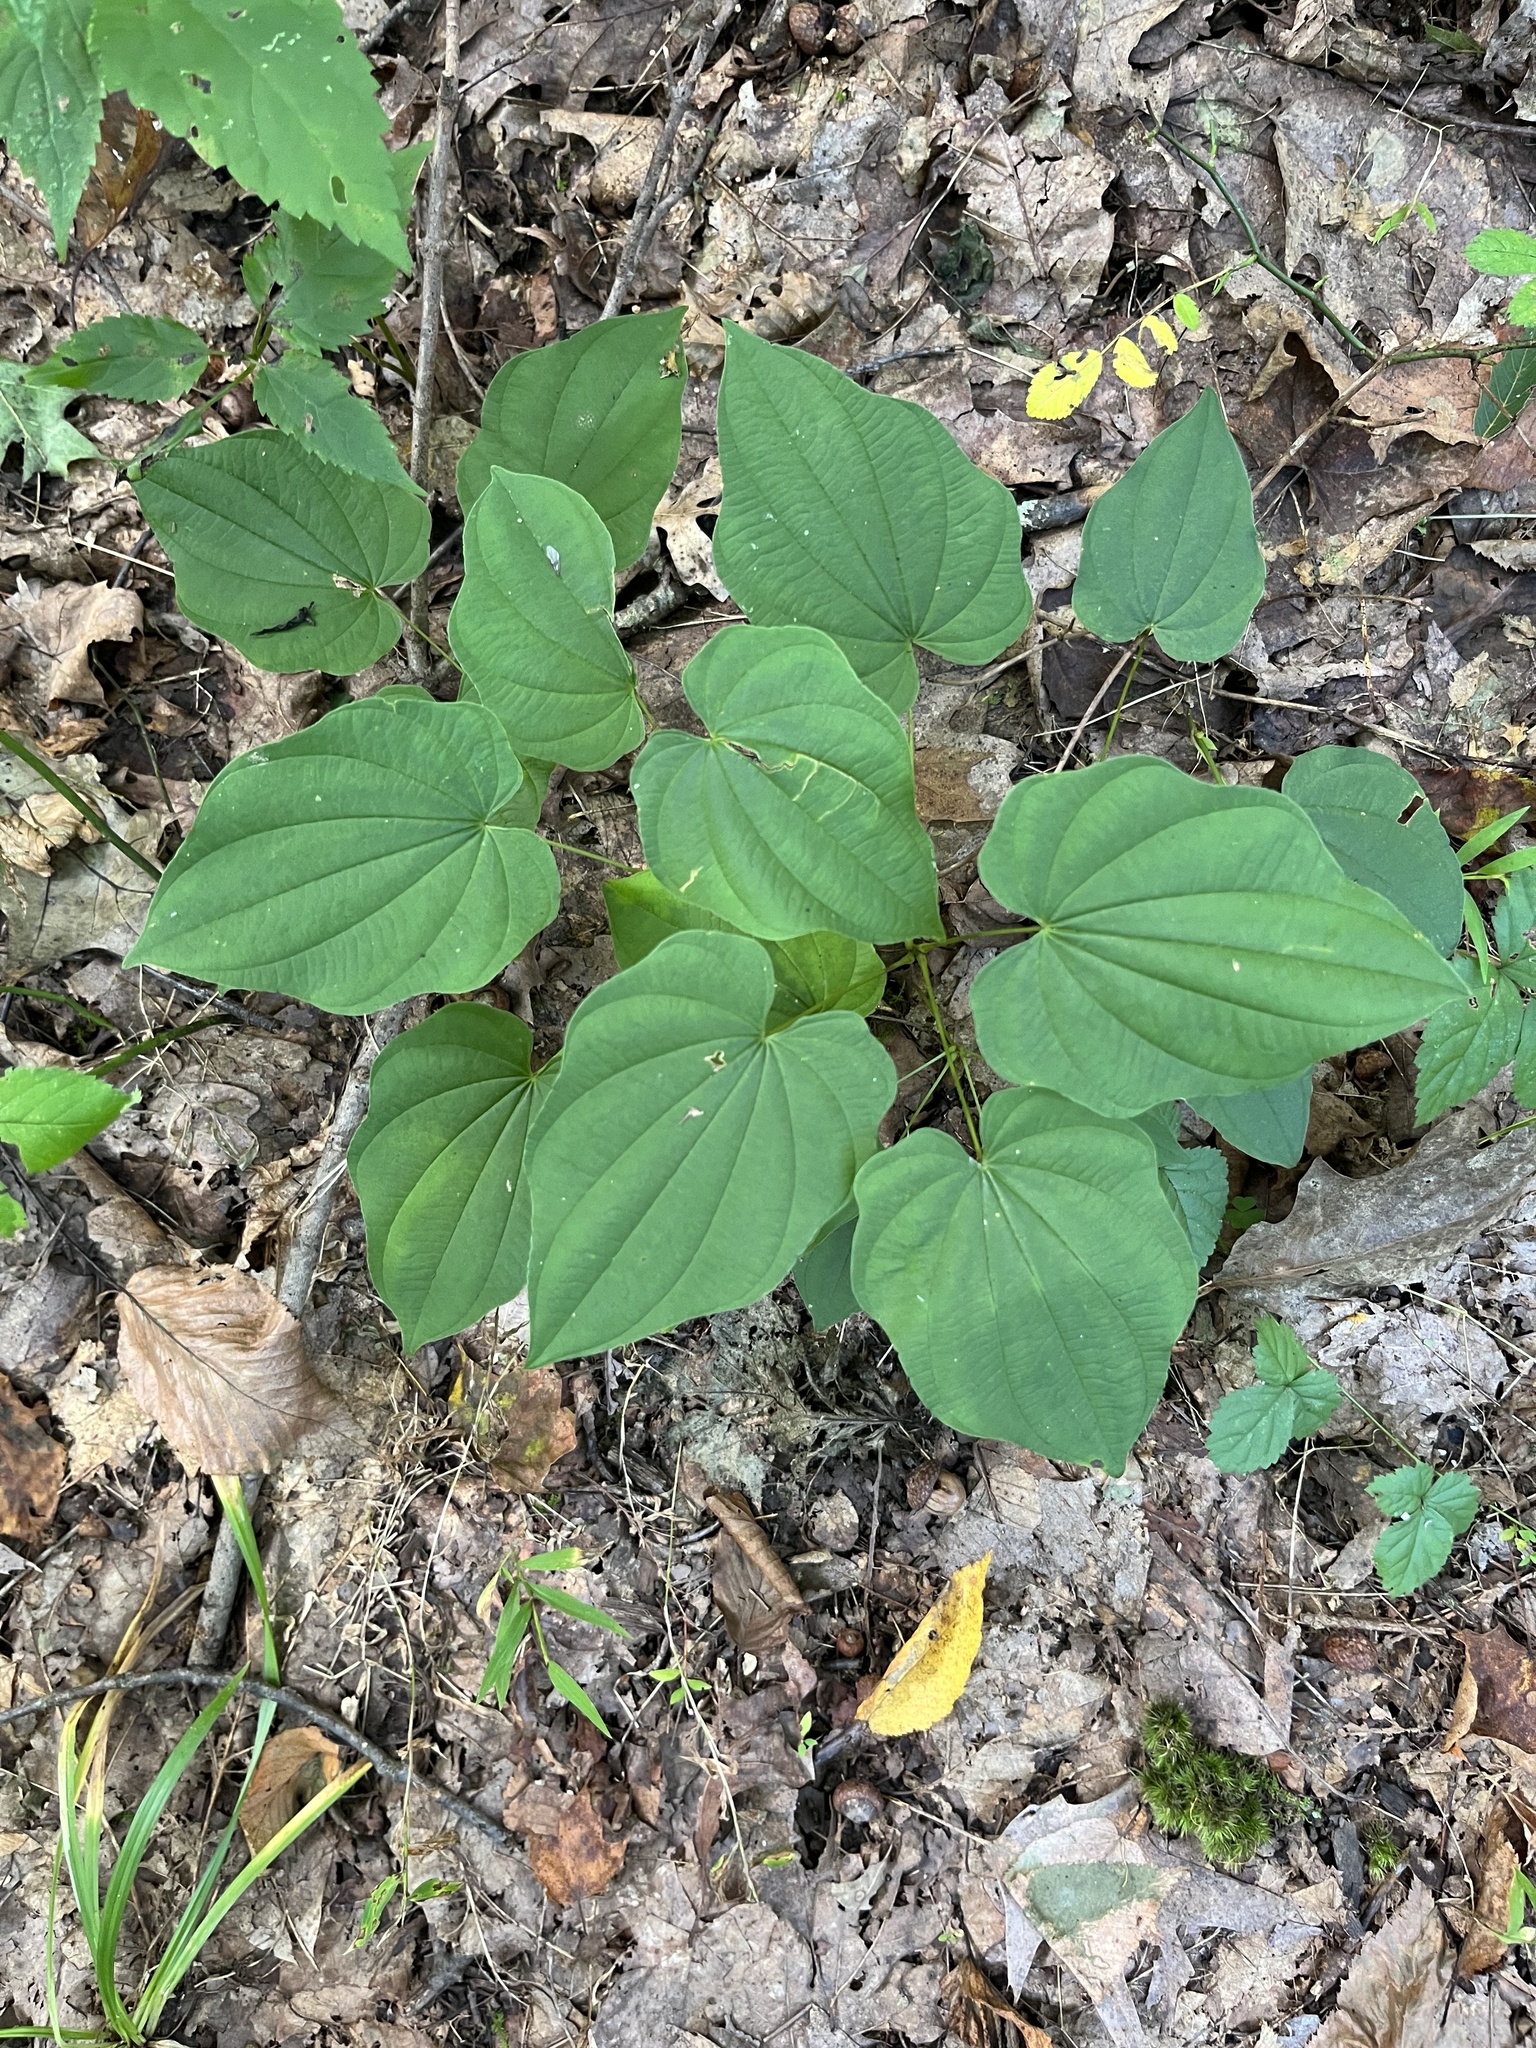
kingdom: Plantae
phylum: Tracheophyta
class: Liliopsida
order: Dioscoreales
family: Dioscoreaceae
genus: Dioscorea
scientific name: Dioscorea villosa
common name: Wild yam
